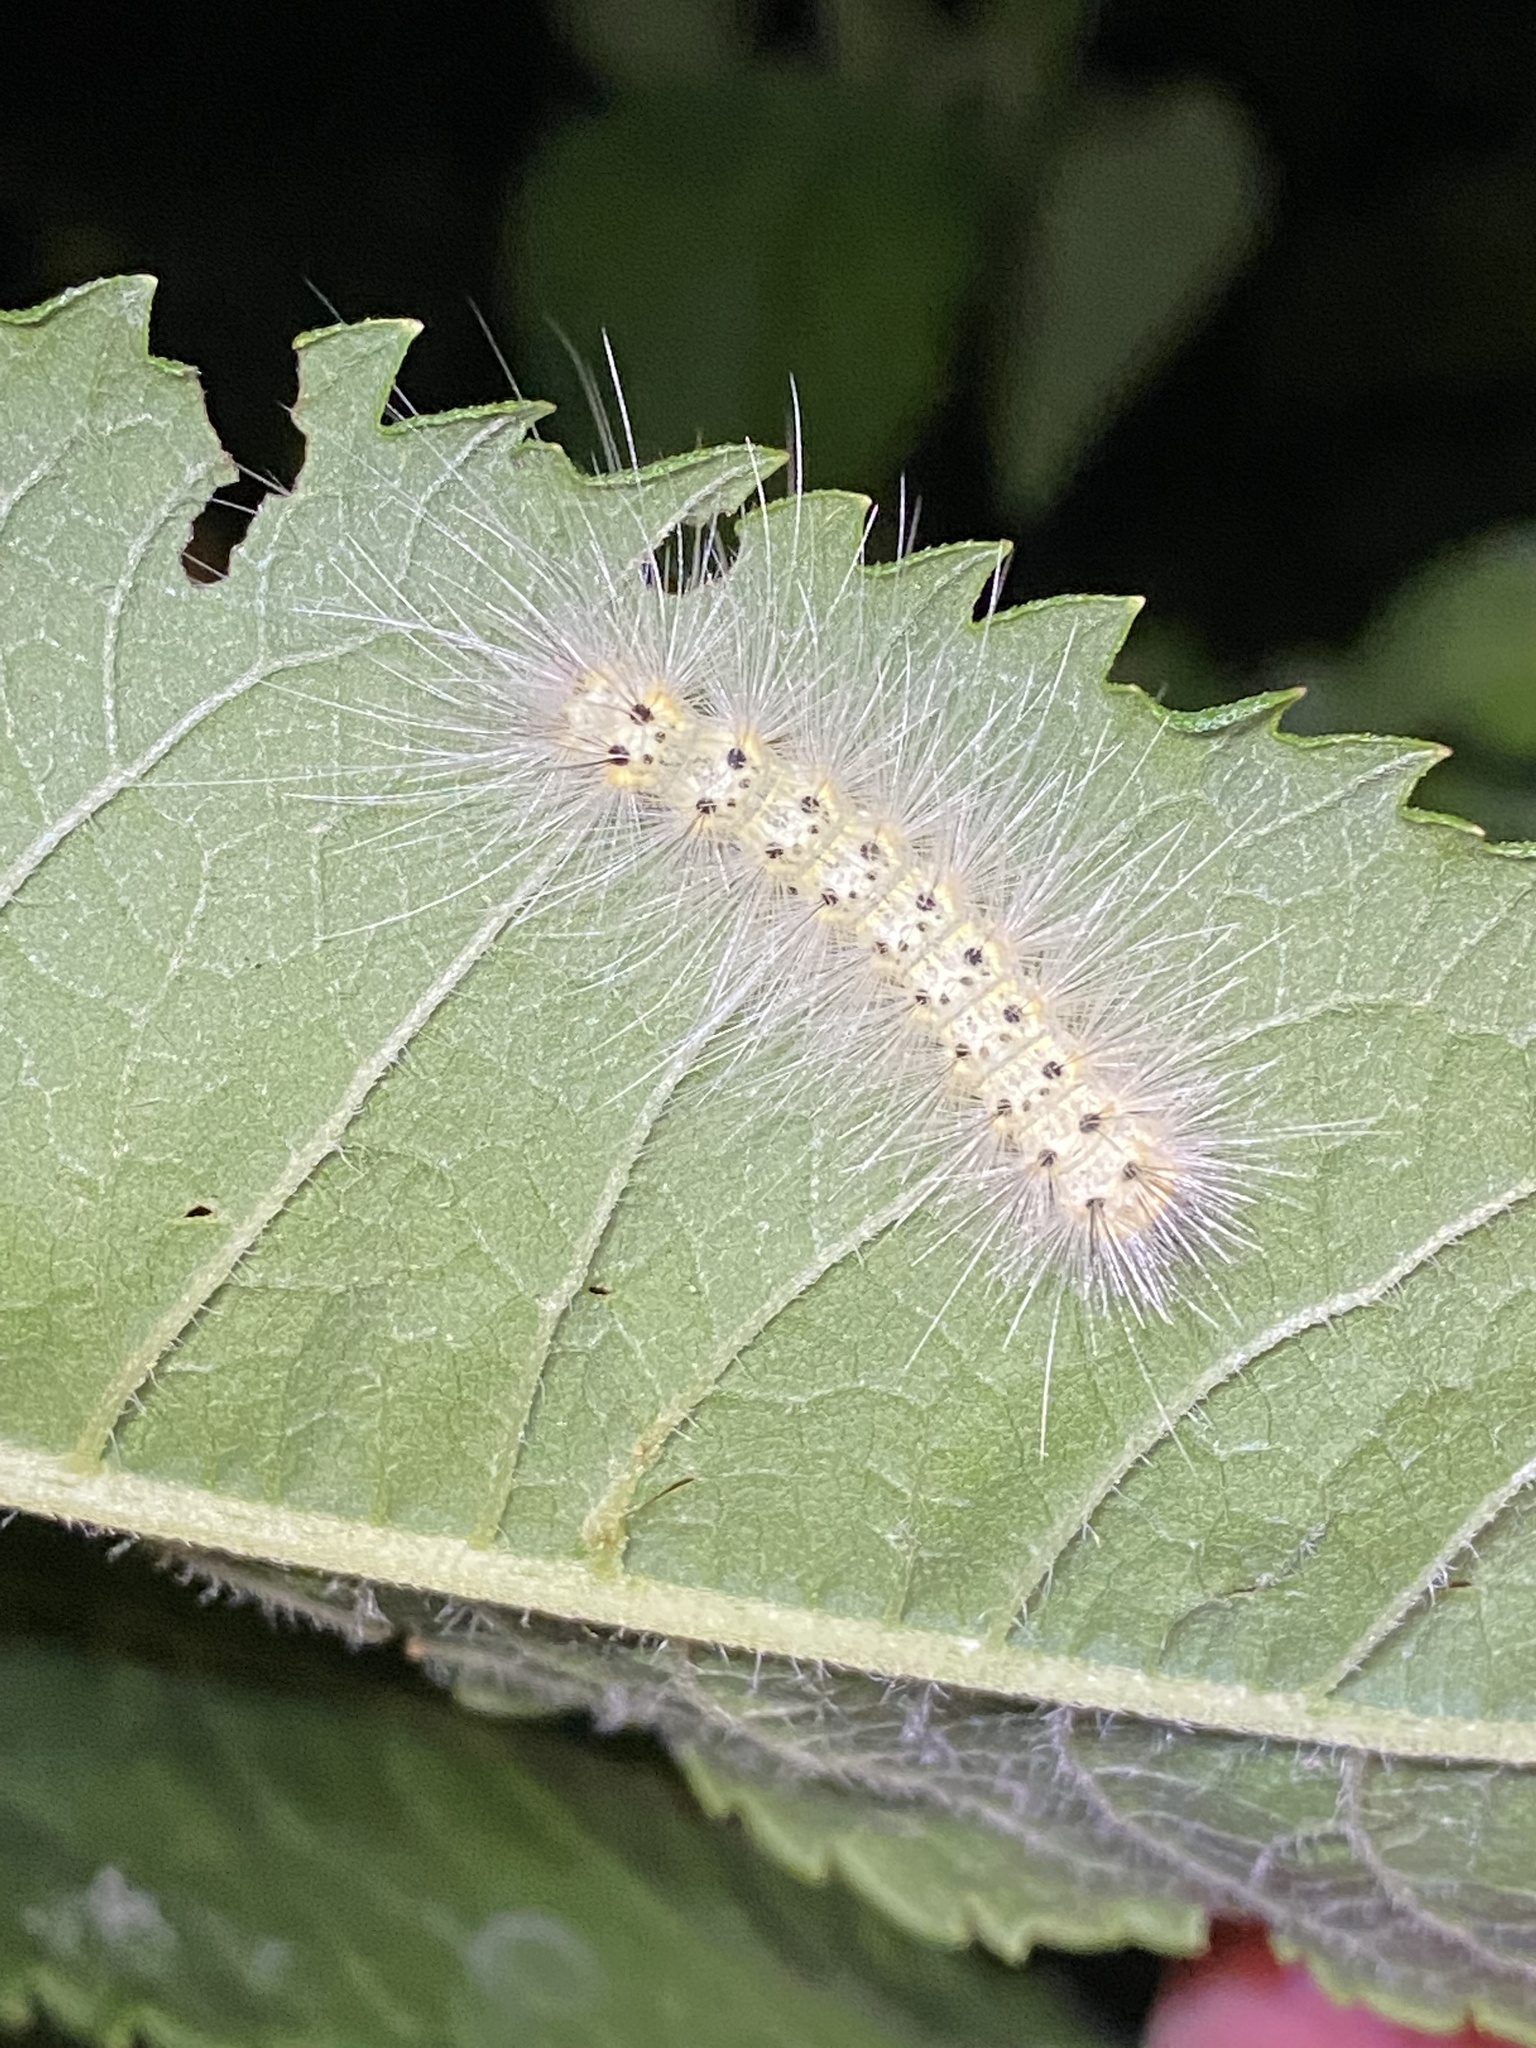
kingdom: Animalia
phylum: Arthropoda
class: Insecta
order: Lepidoptera
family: Erebidae
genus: Hyphantria
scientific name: Hyphantria cunea
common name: American white moth
